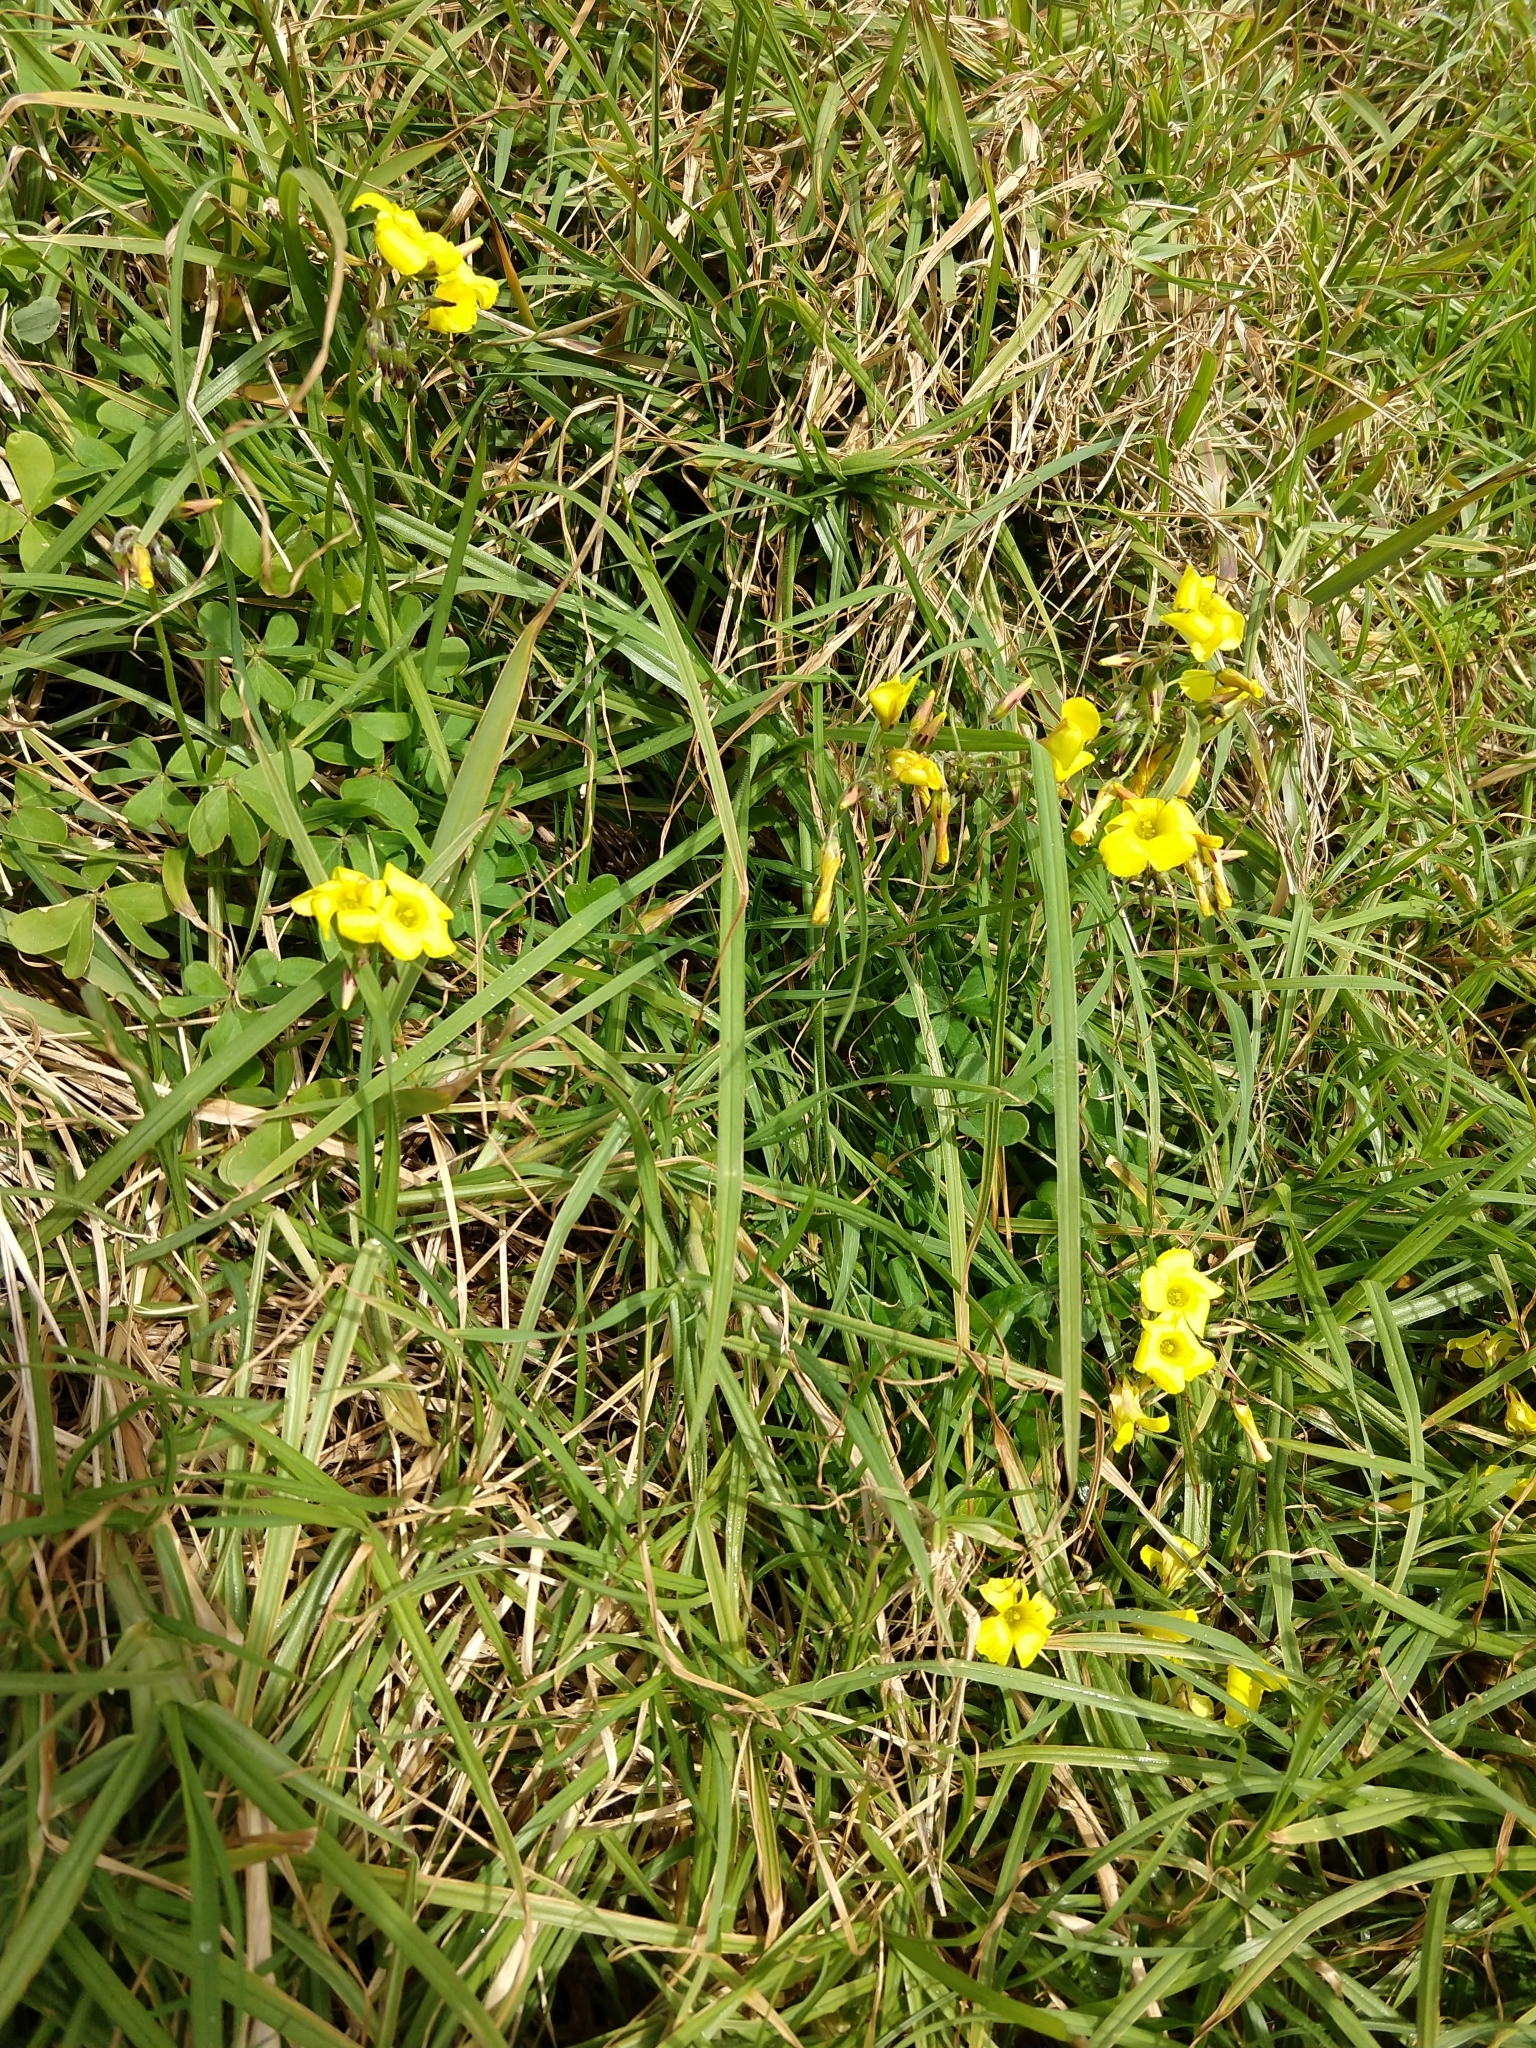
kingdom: Plantae
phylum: Tracheophyta
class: Magnoliopsida
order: Oxalidales
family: Oxalidaceae
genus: Oxalis
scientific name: Oxalis pes-caprae
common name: Bermuda-buttercup
